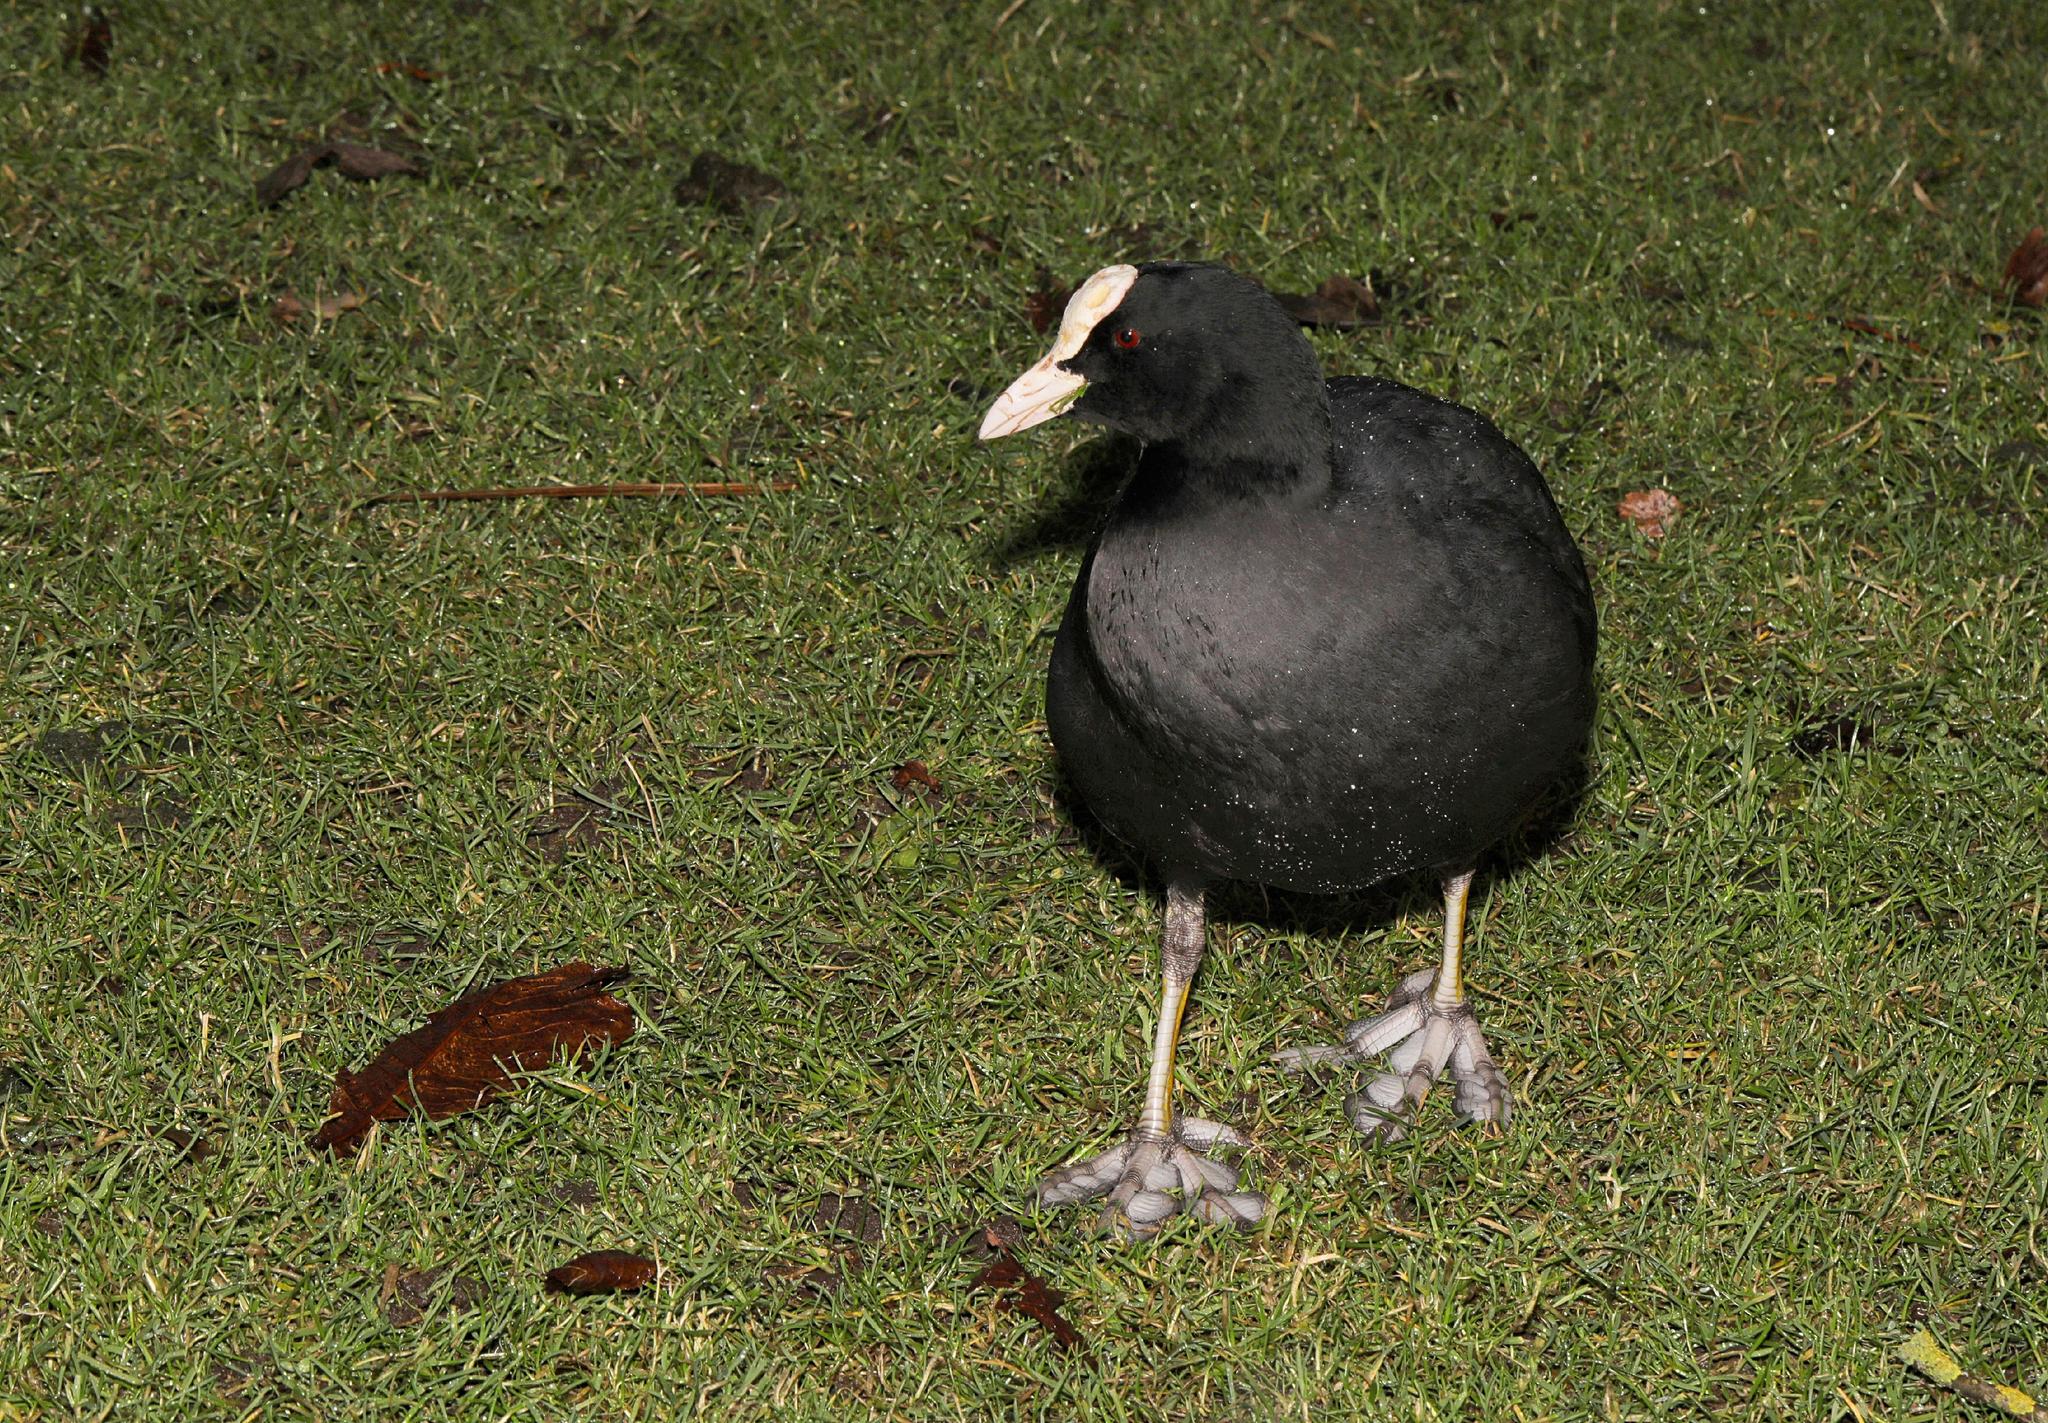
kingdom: Animalia
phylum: Chordata
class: Aves
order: Gruiformes
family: Rallidae
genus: Fulica
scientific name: Fulica atra
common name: Eurasian coot
